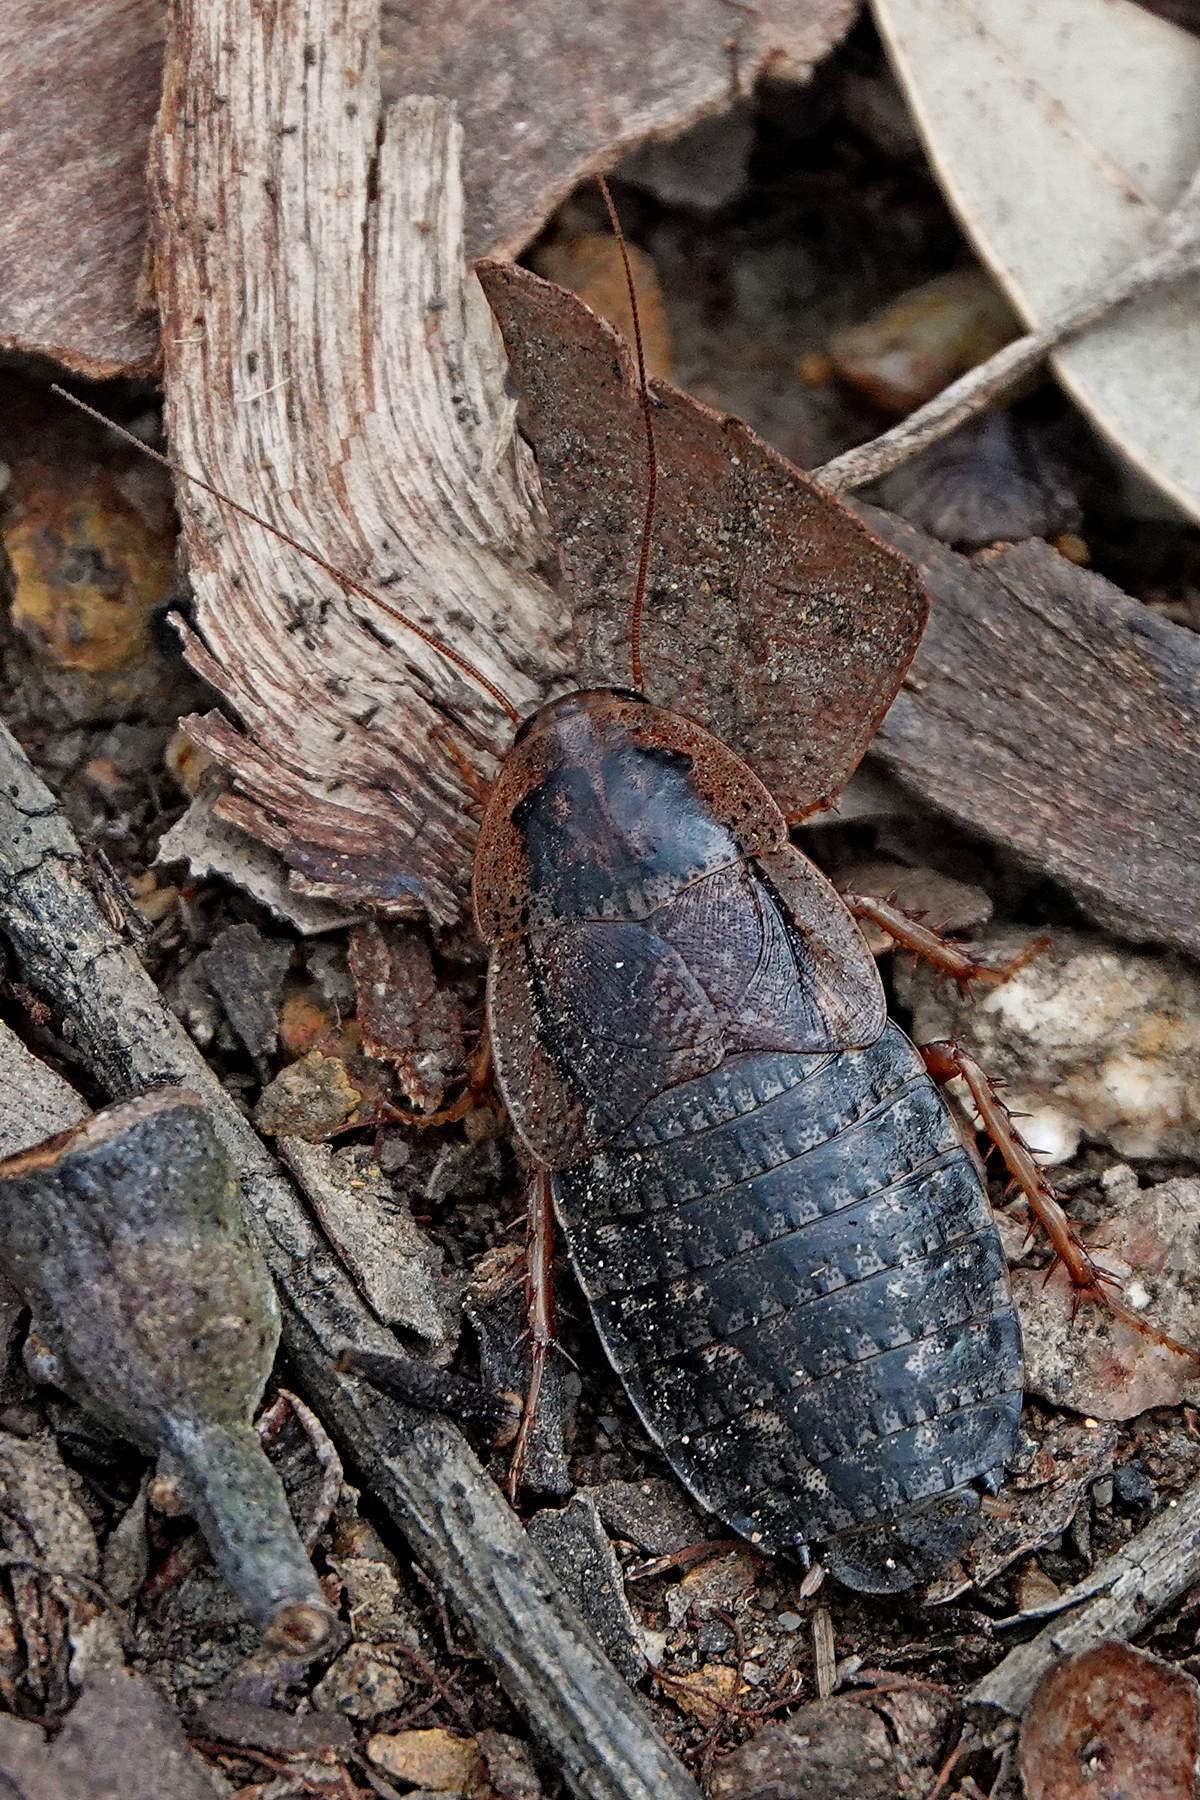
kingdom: Animalia
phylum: Arthropoda
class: Insecta
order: Blattodea
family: Blaberidae
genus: Molytria
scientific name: Molytria perplexa
